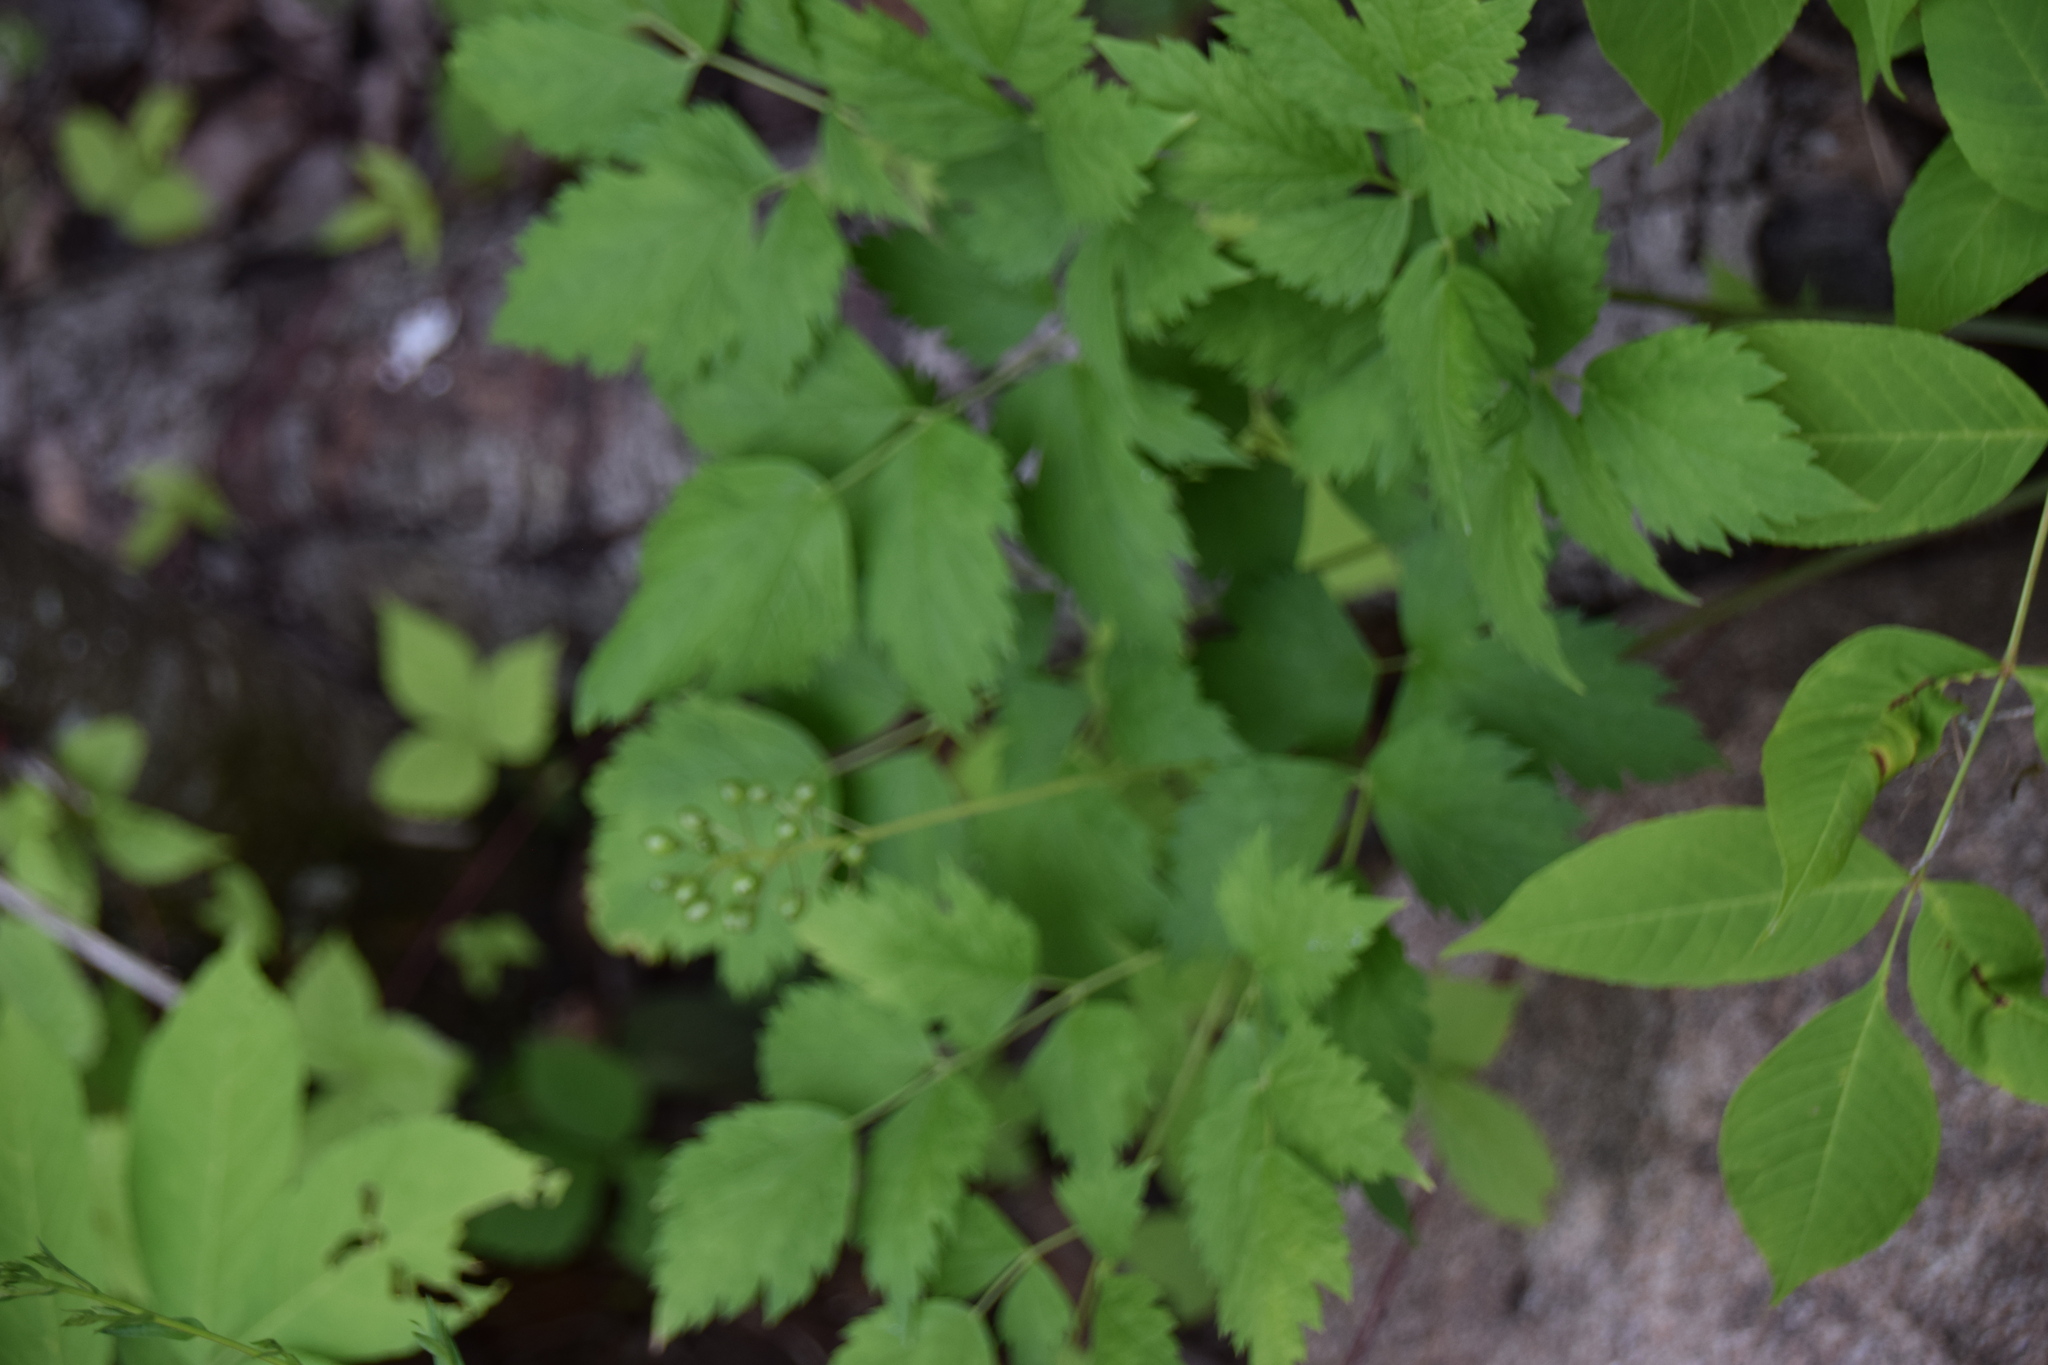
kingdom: Plantae
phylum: Tracheophyta
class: Magnoliopsida
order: Ranunculales
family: Ranunculaceae
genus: Actaea
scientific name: Actaea rubra
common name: Red baneberry
